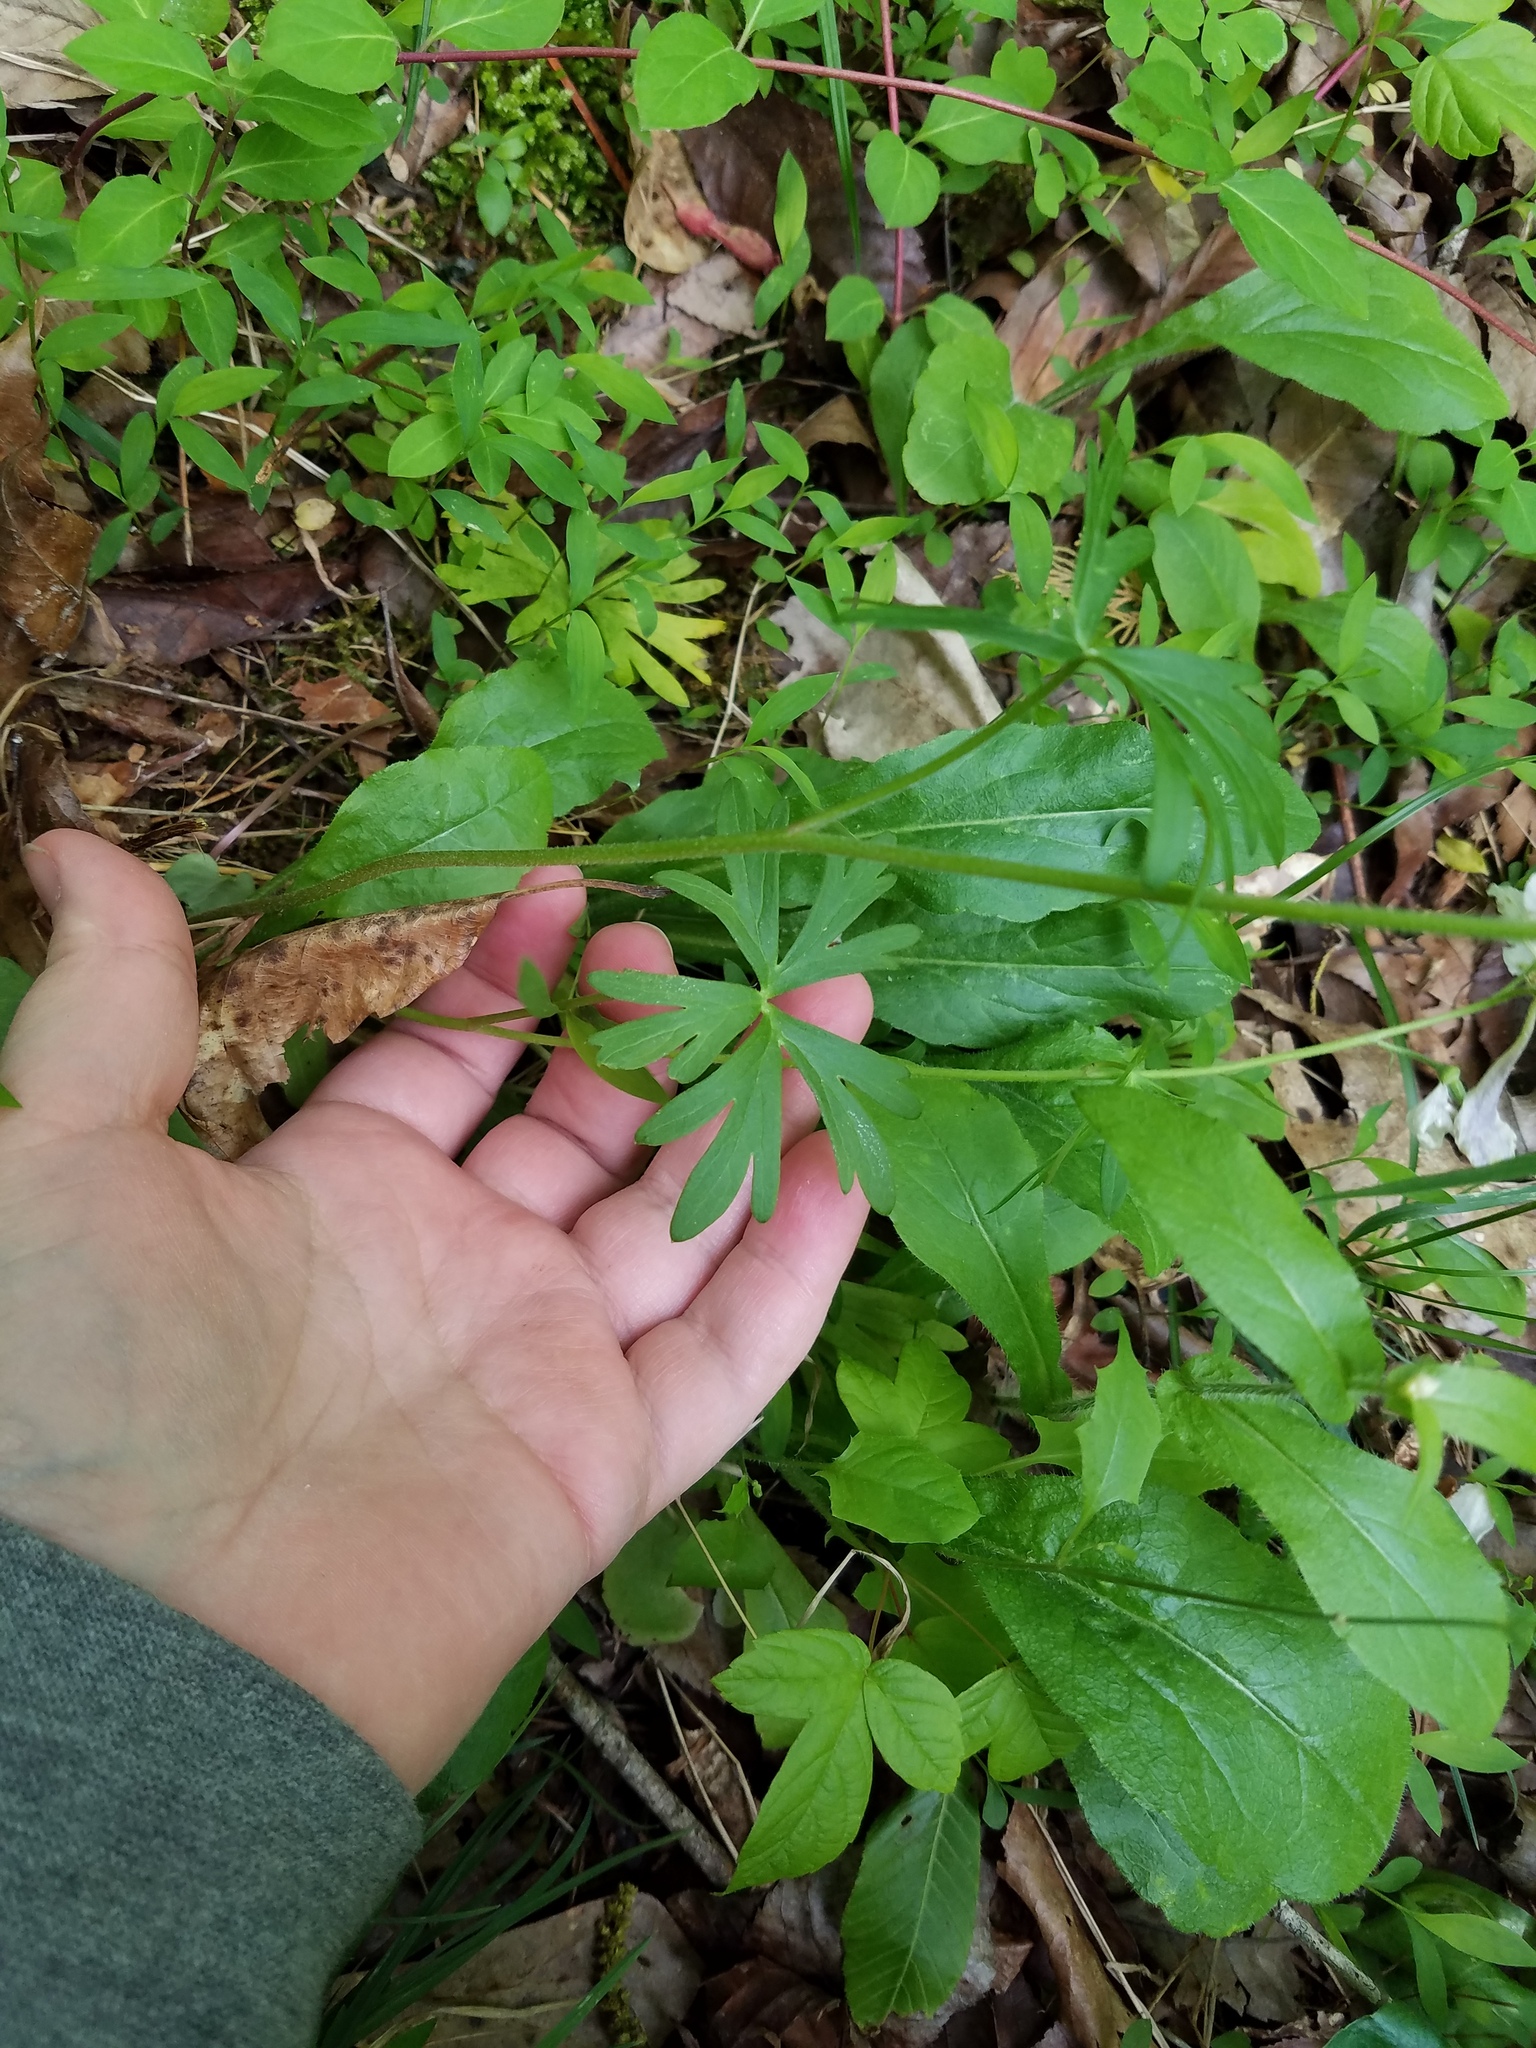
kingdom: Plantae
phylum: Tracheophyta
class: Magnoliopsida
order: Ranunculales
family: Ranunculaceae
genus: Delphinium
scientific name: Delphinium tricorne
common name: Dwarf larkspur
